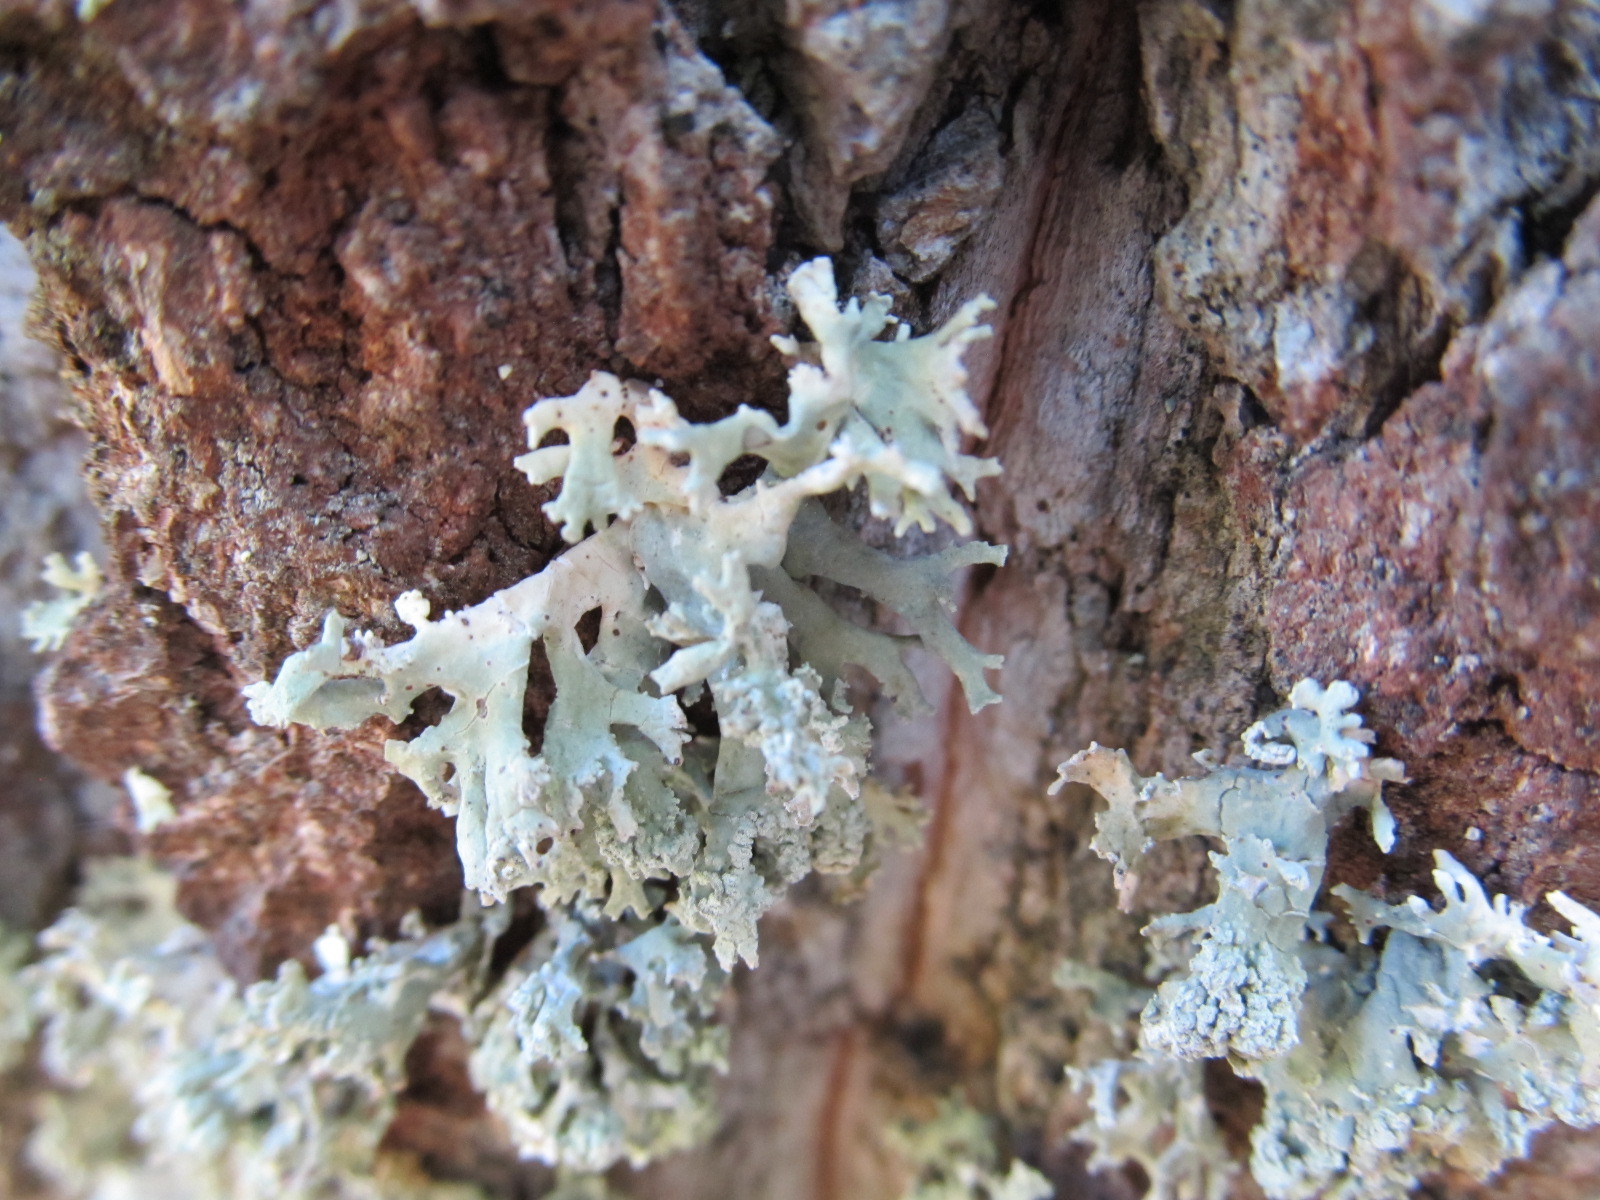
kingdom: Fungi
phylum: Ascomycota
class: Lecanoromycetes
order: Lecanorales
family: Parmeliaceae
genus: Evernia
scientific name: Evernia prunastri
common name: Oak moss
